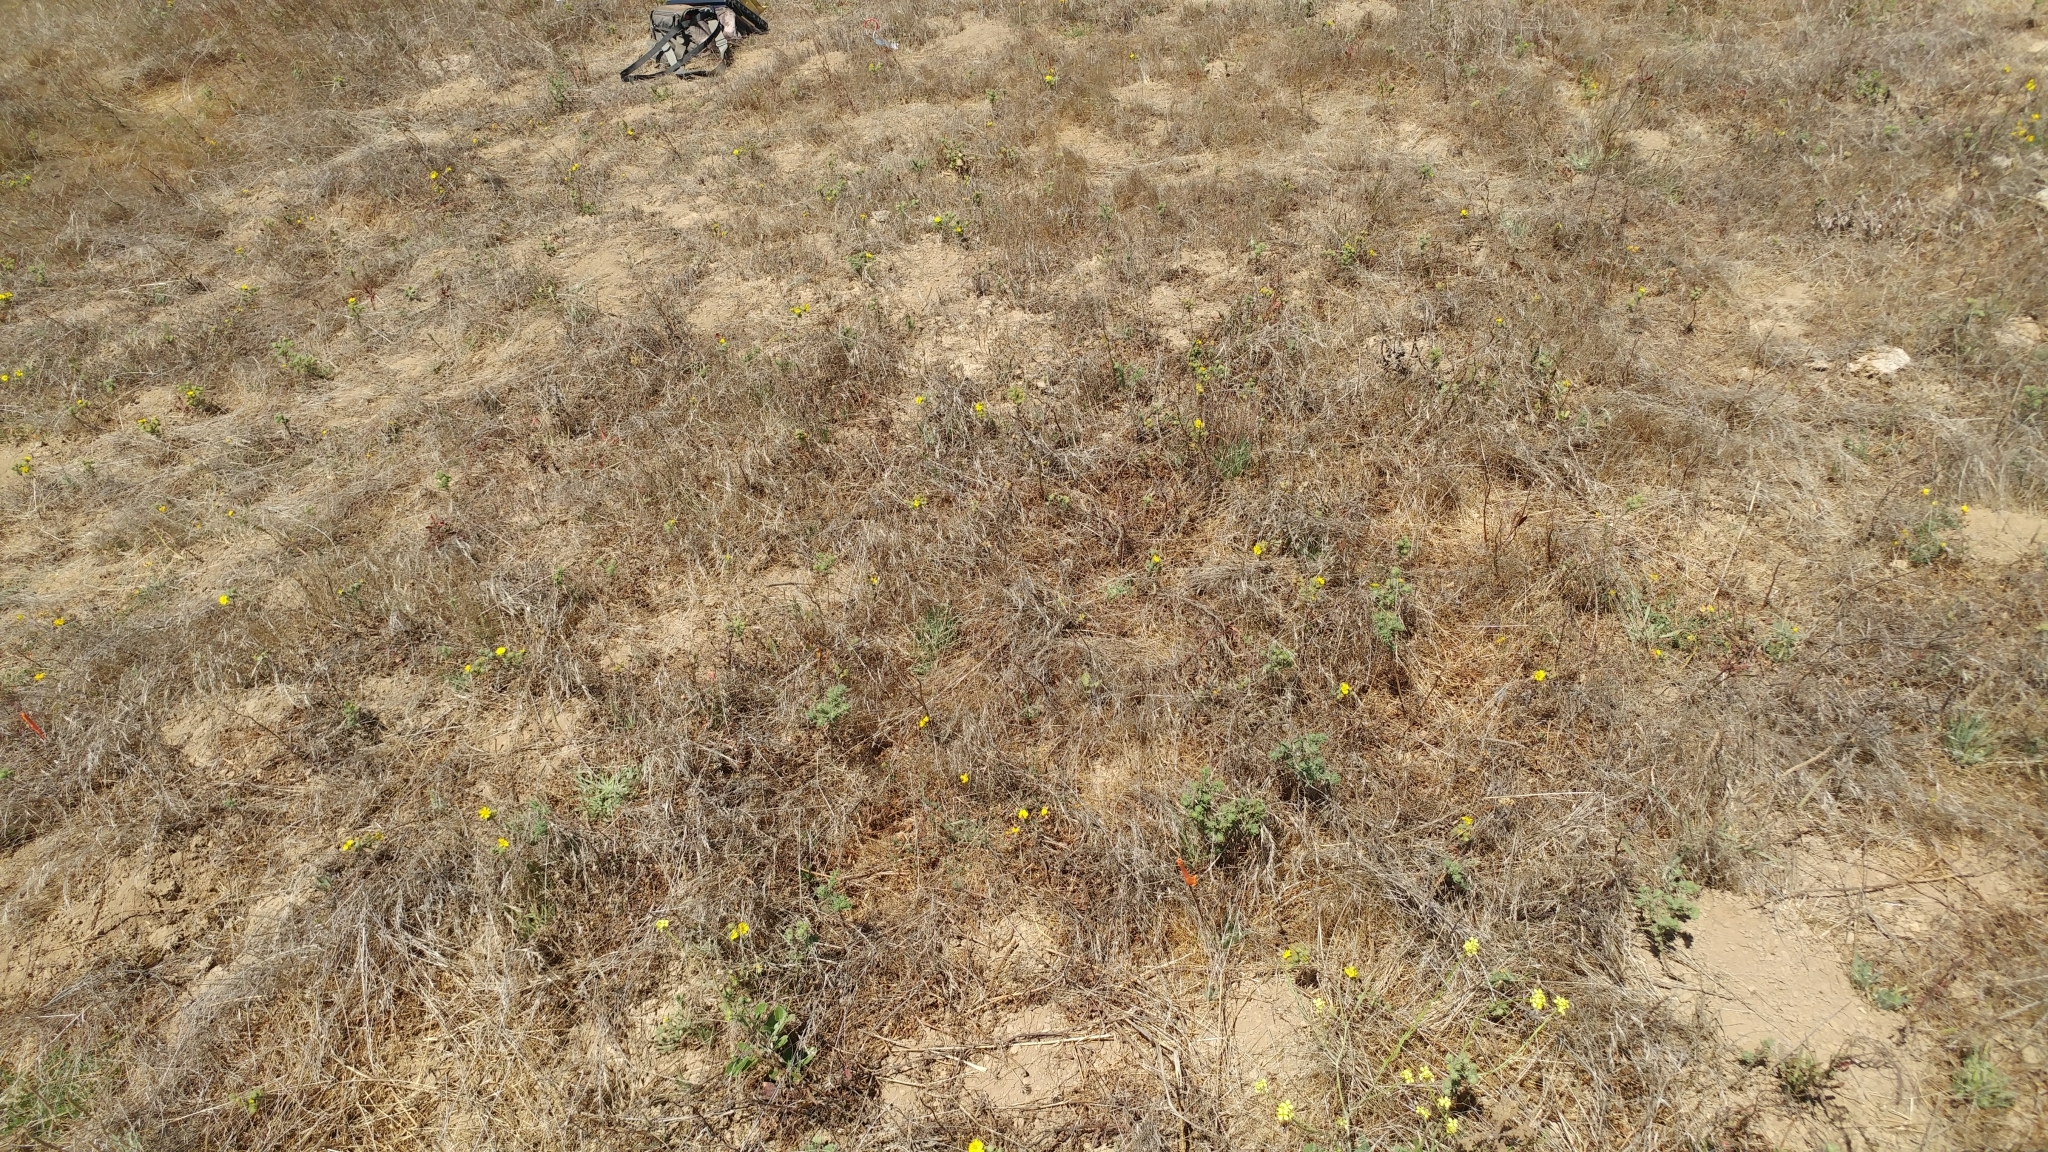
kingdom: Plantae
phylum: Tracheophyta
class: Magnoliopsida
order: Asterales
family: Asteraceae
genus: Deinandra
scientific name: Deinandra increscens
